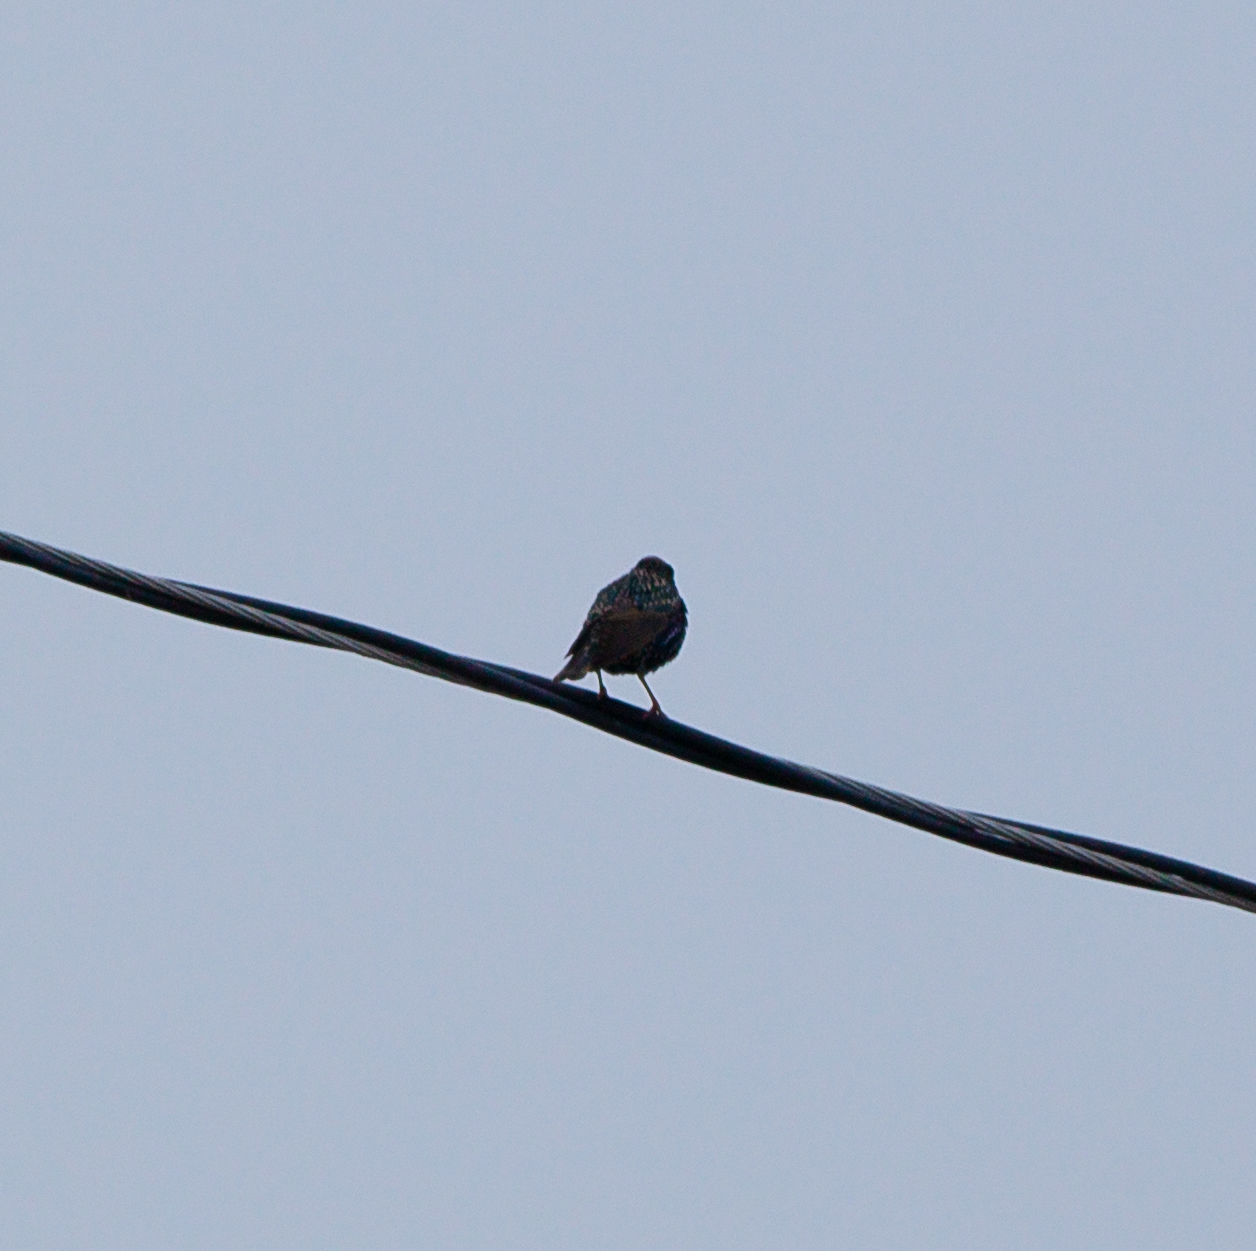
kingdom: Animalia
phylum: Chordata
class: Aves
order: Passeriformes
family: Sturnidae
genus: Sturnus
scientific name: Sturnus vulgaris
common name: Common starling
